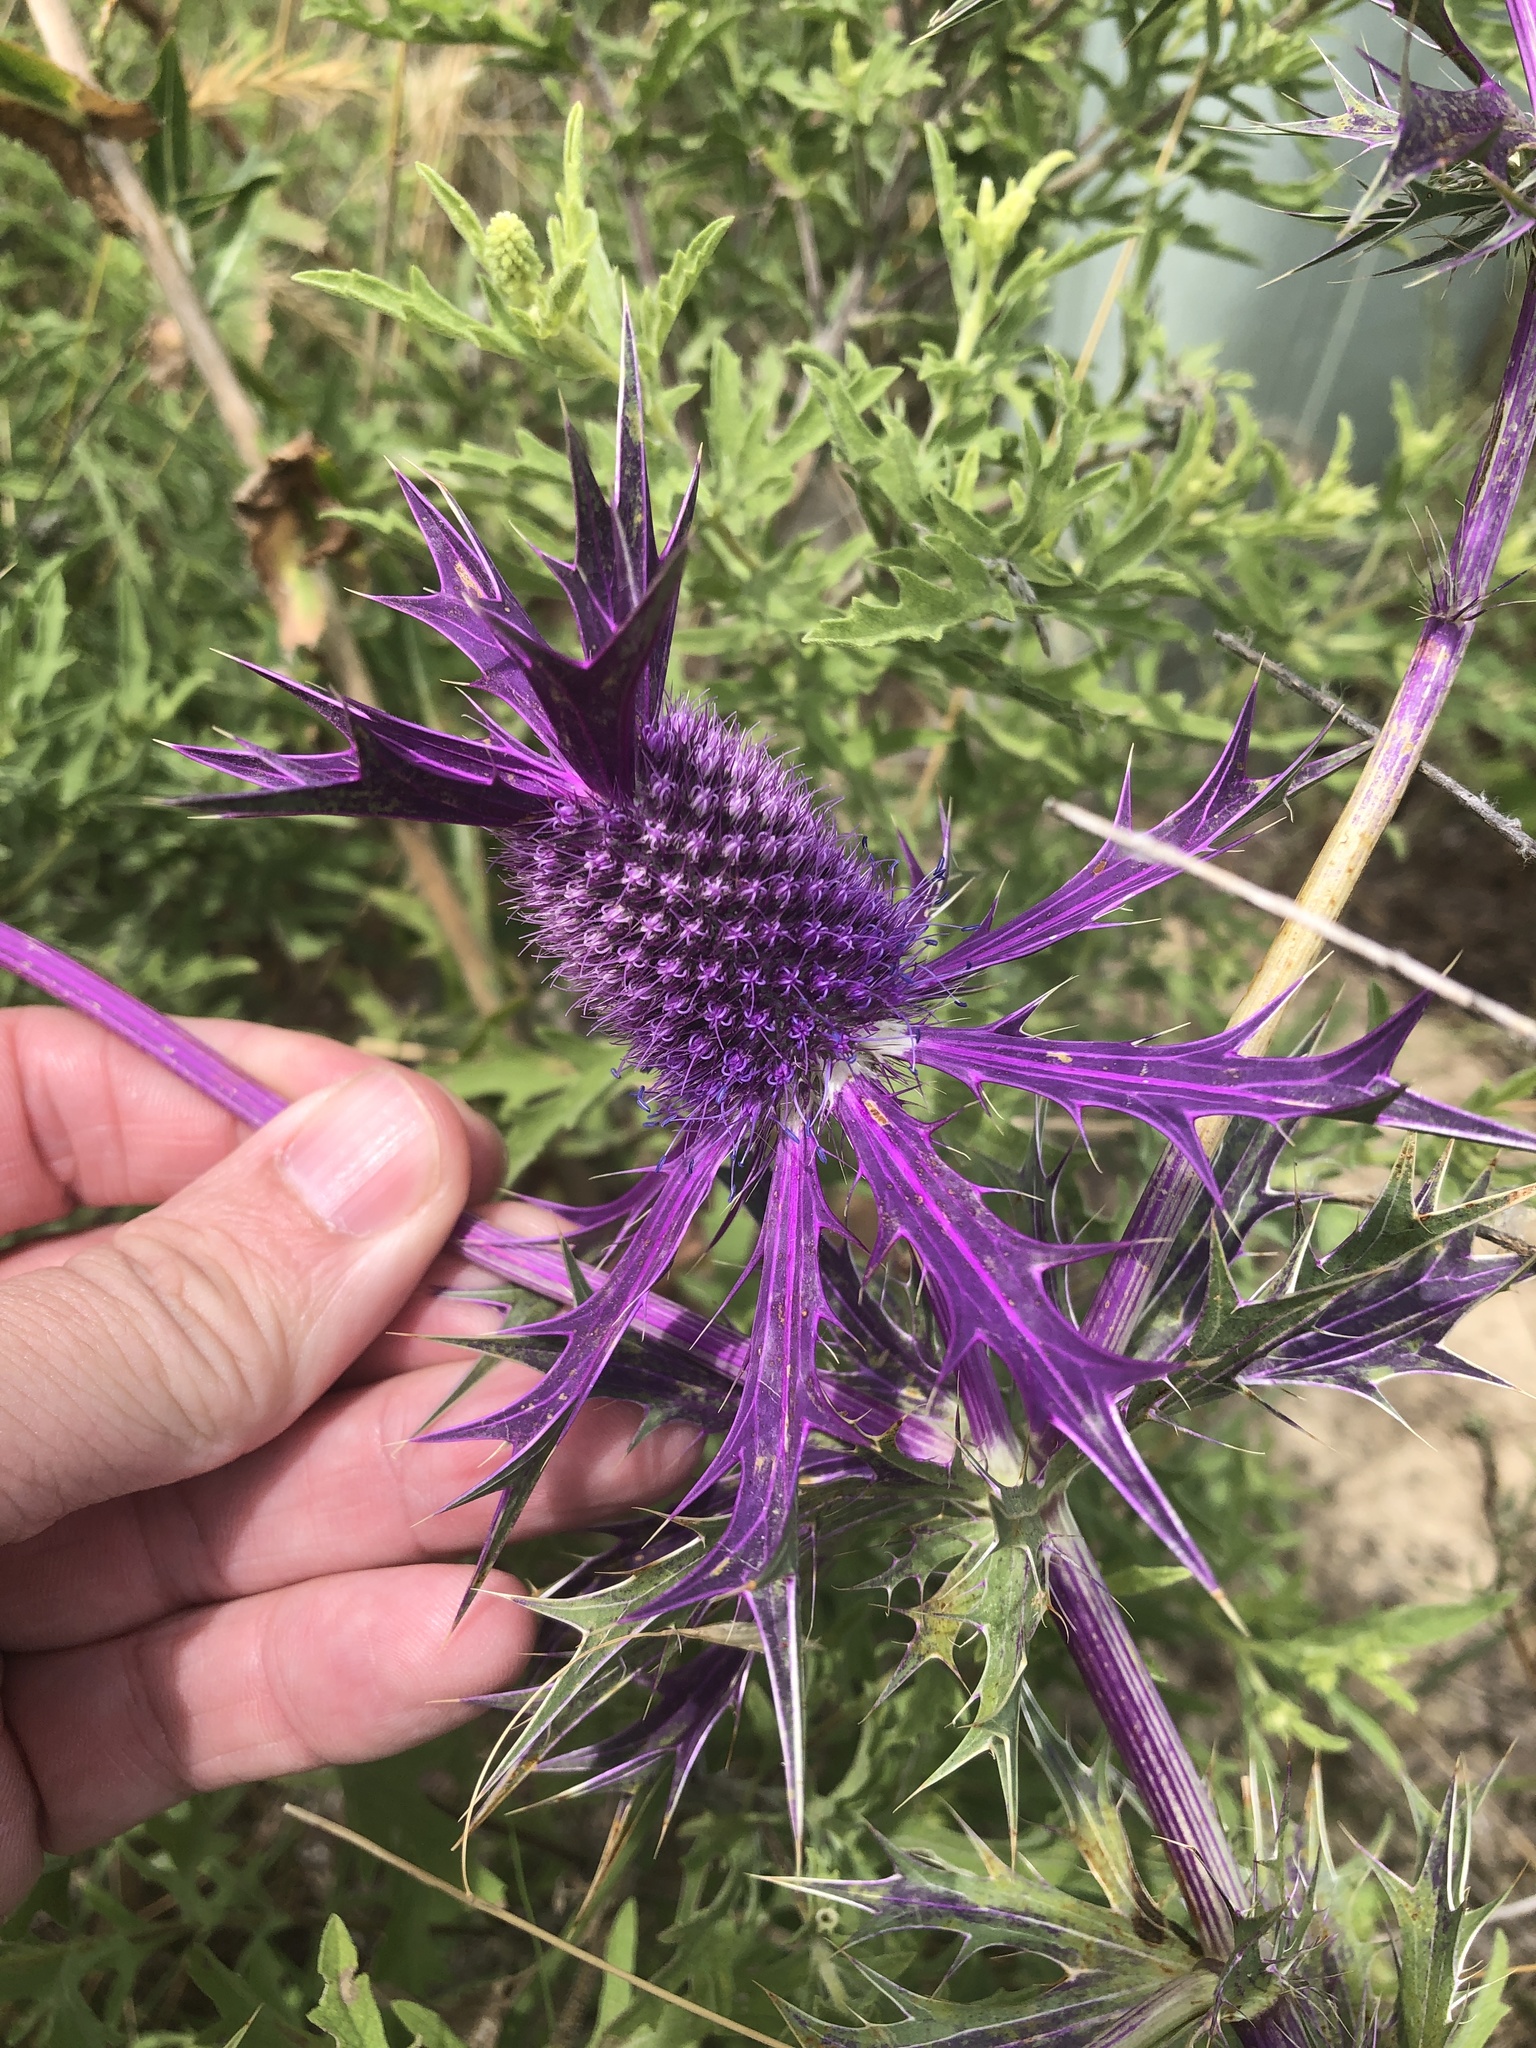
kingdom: Plantae
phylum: Tracheophyta
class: Magnoliopsida
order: Apiales
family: Apiaceae
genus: Eryngium
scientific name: Eryngium leavenworthii
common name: Leavenworth's eryngo
